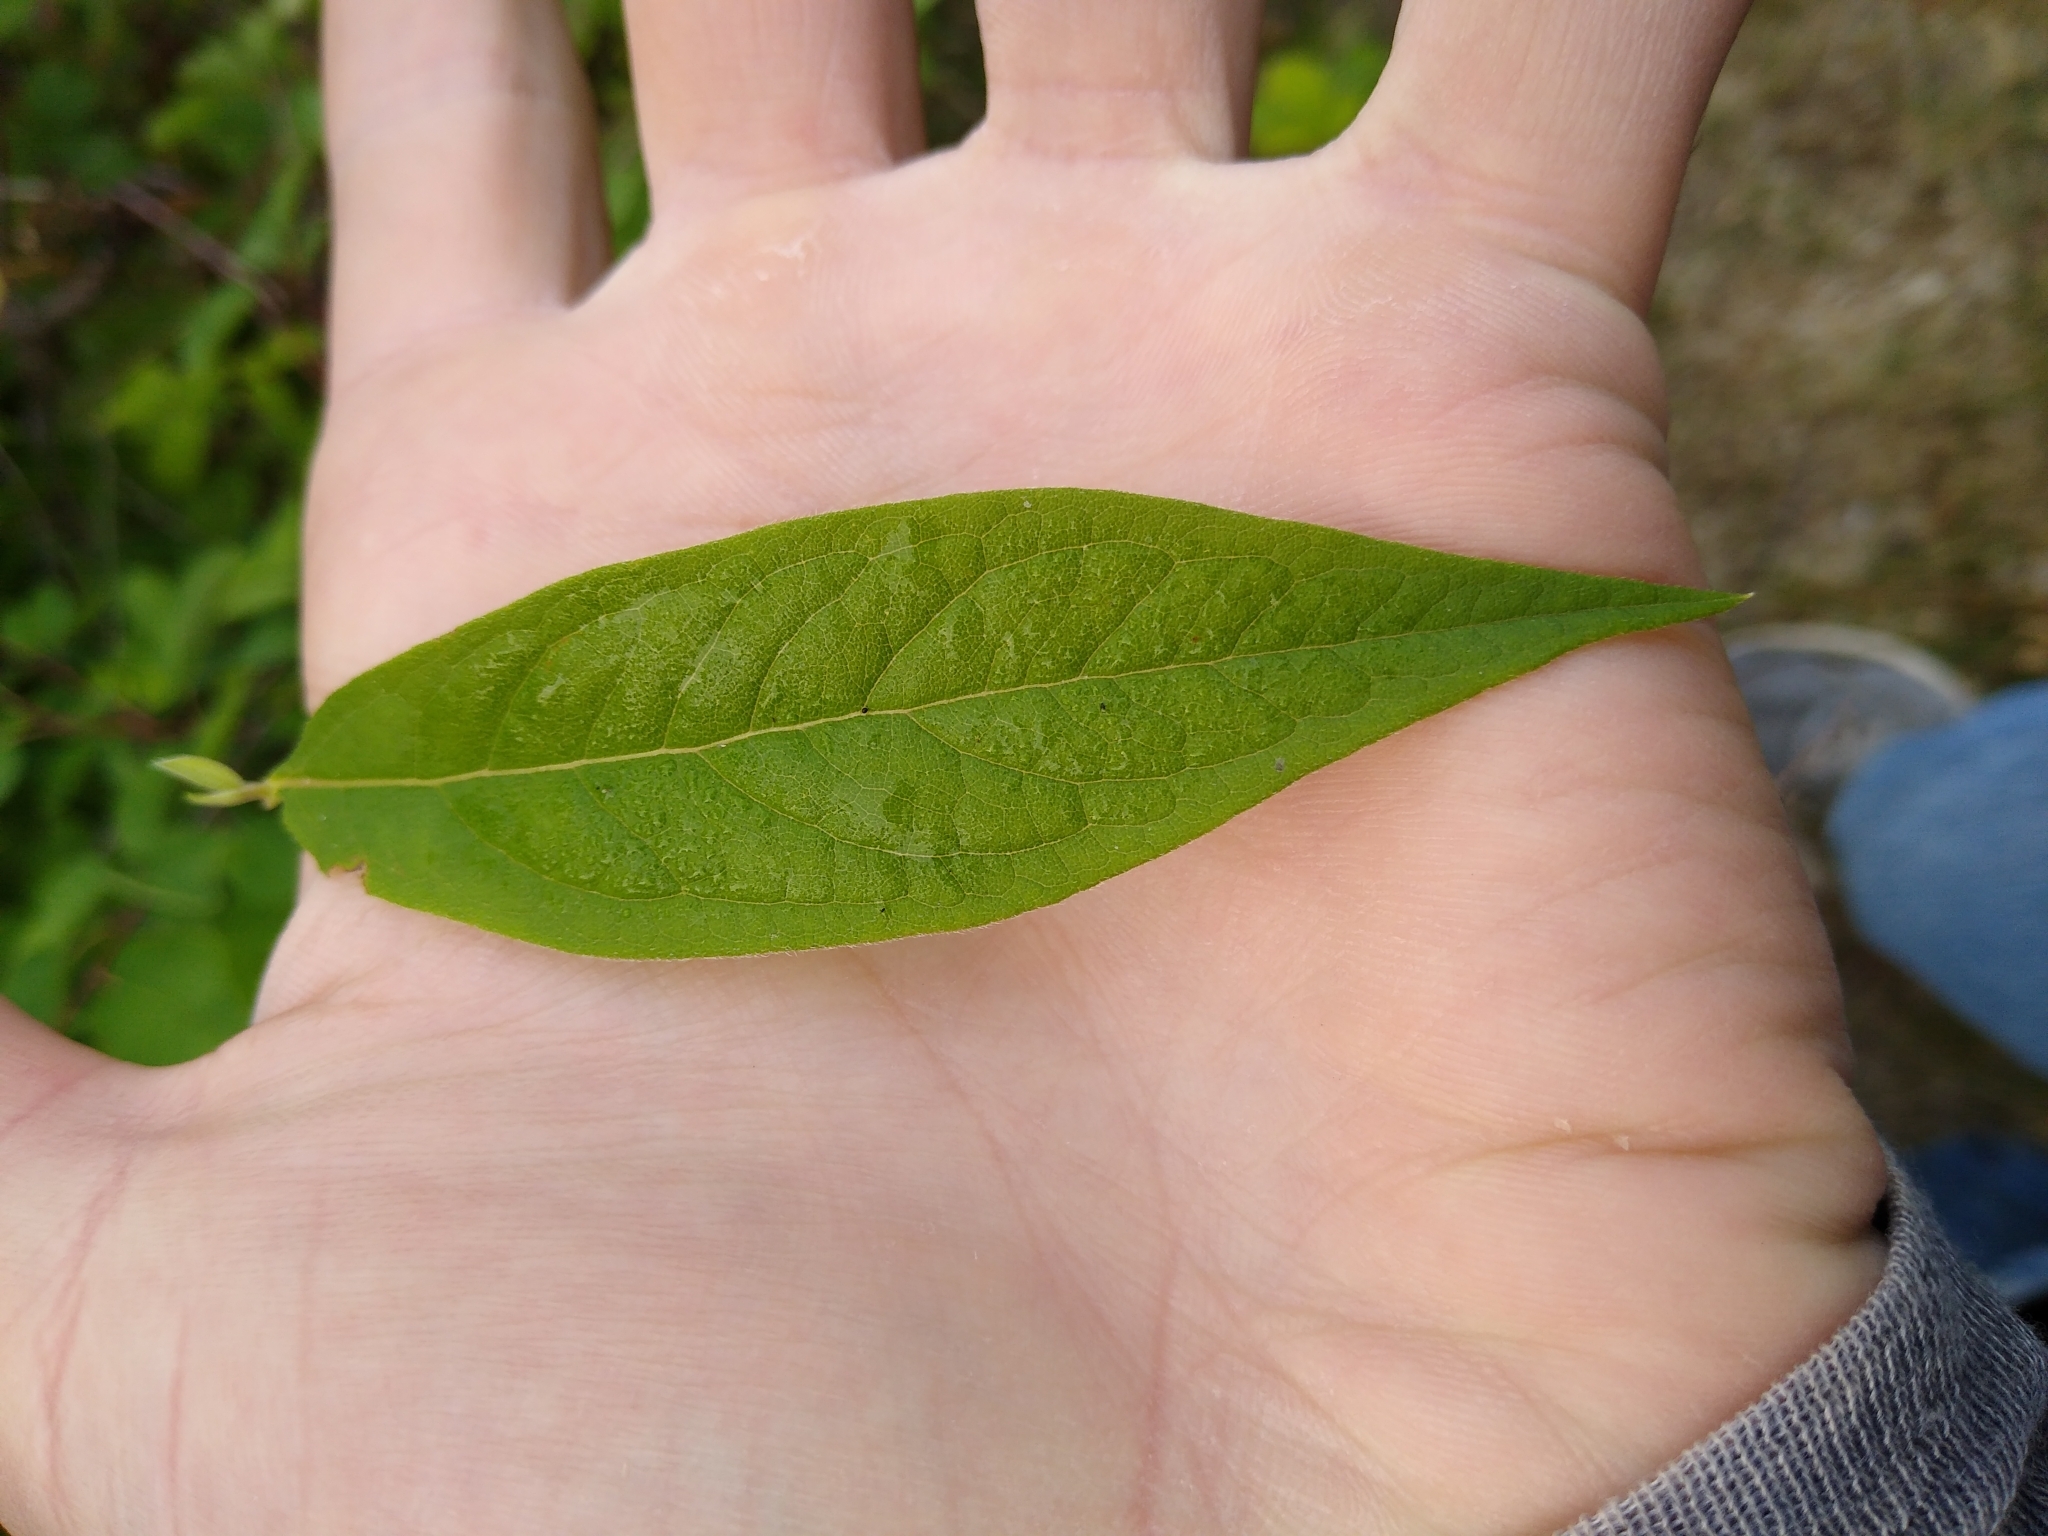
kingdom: Plantae
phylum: Tracheophyta
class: Magnoliopsida
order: Asterales
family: Asteraceae
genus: Doellingeria
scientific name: Doellingeria umbellata
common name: Flat-top white aster
